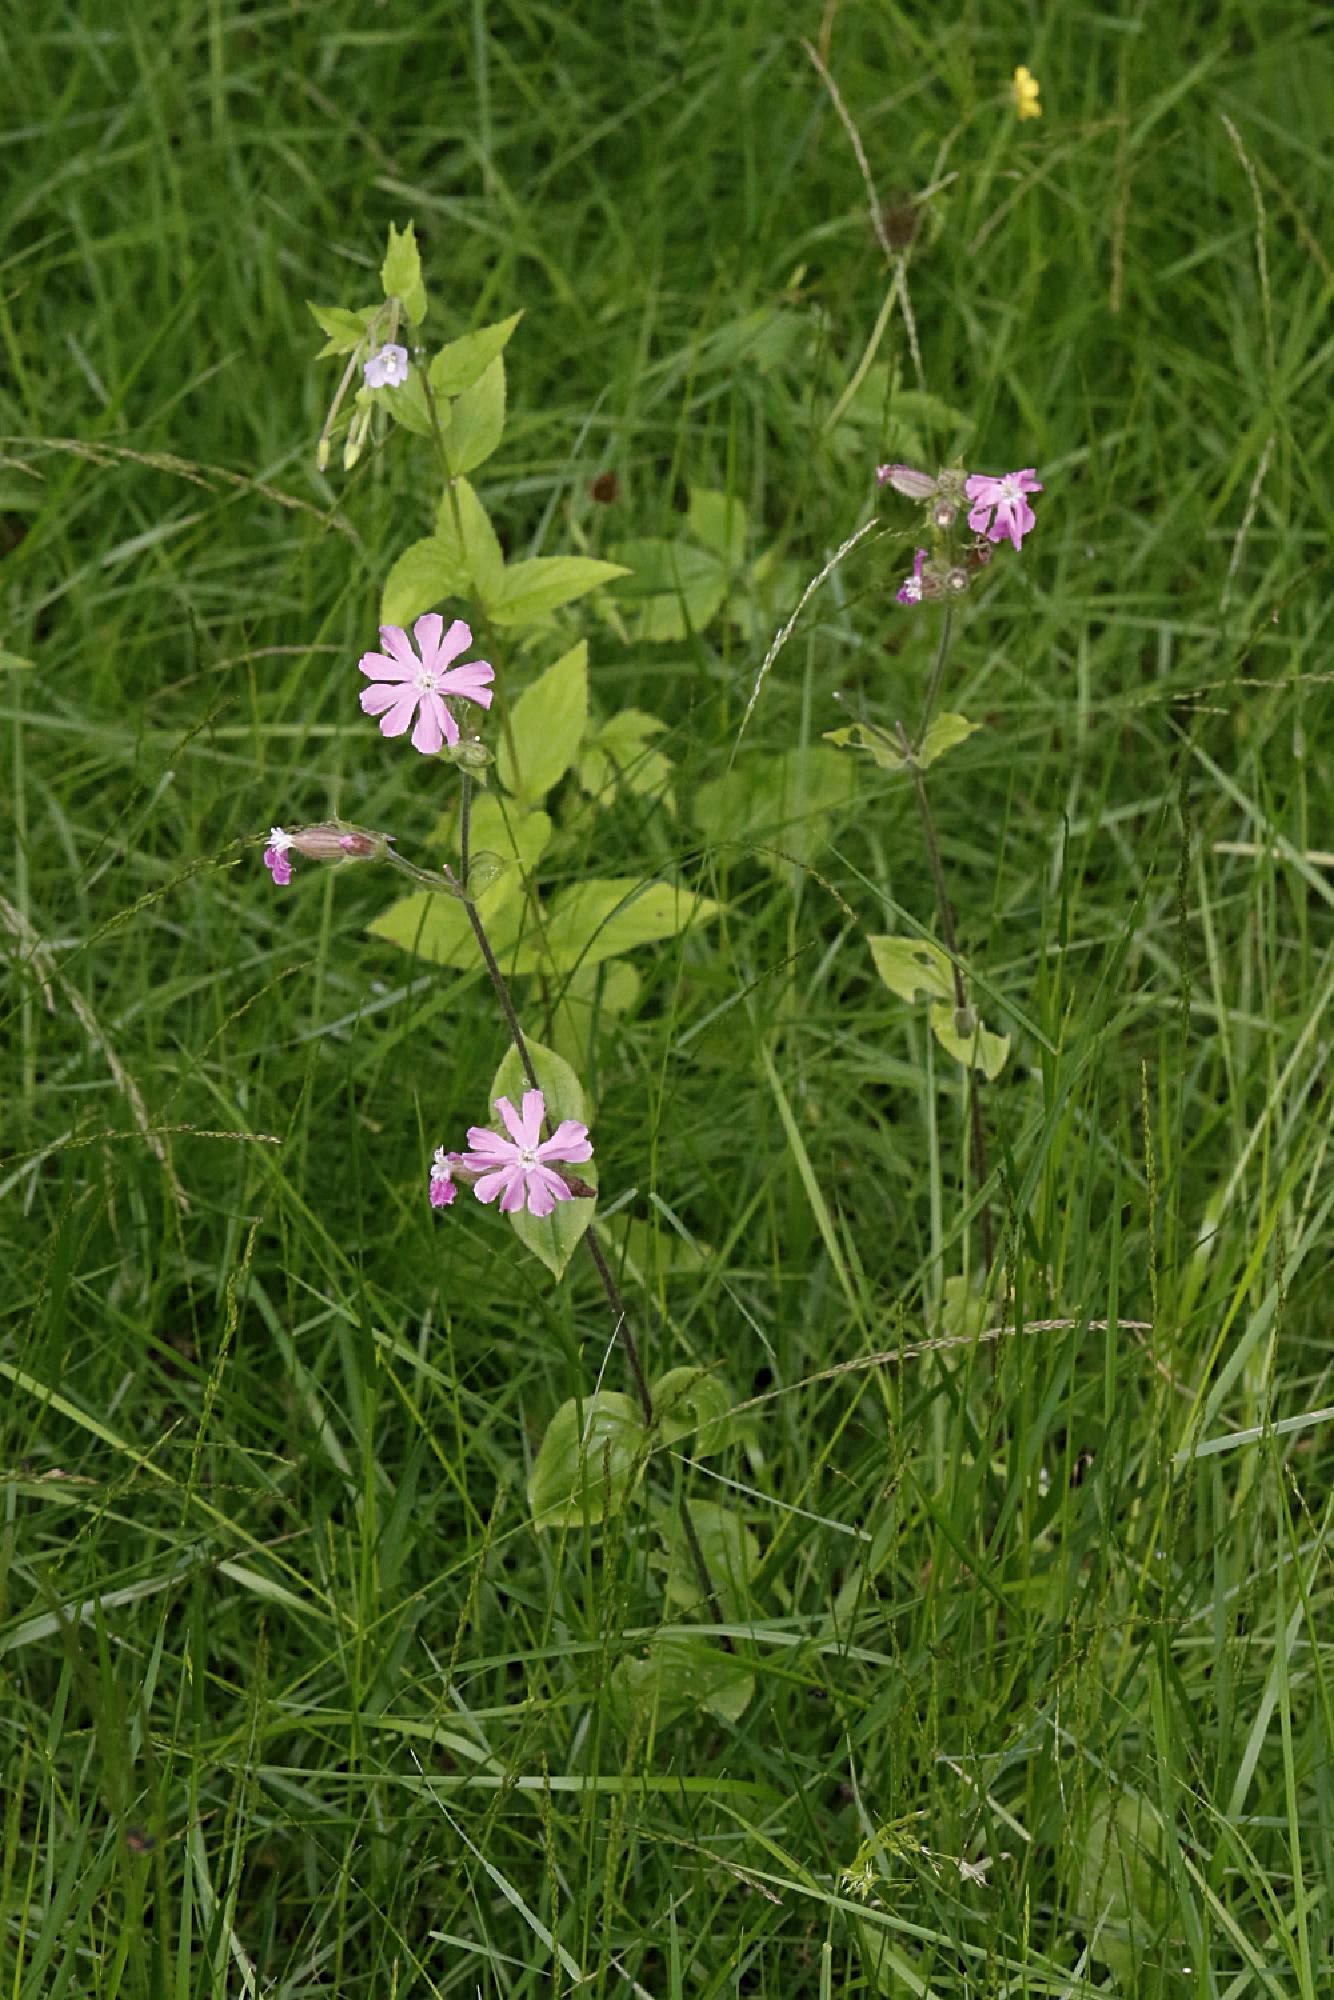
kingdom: Plantae
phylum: Tracheophyta
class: Magnoliopsida
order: Caryophyllales
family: Caryophyllaceae
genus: Silene
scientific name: Silene dioica
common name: Red campion
